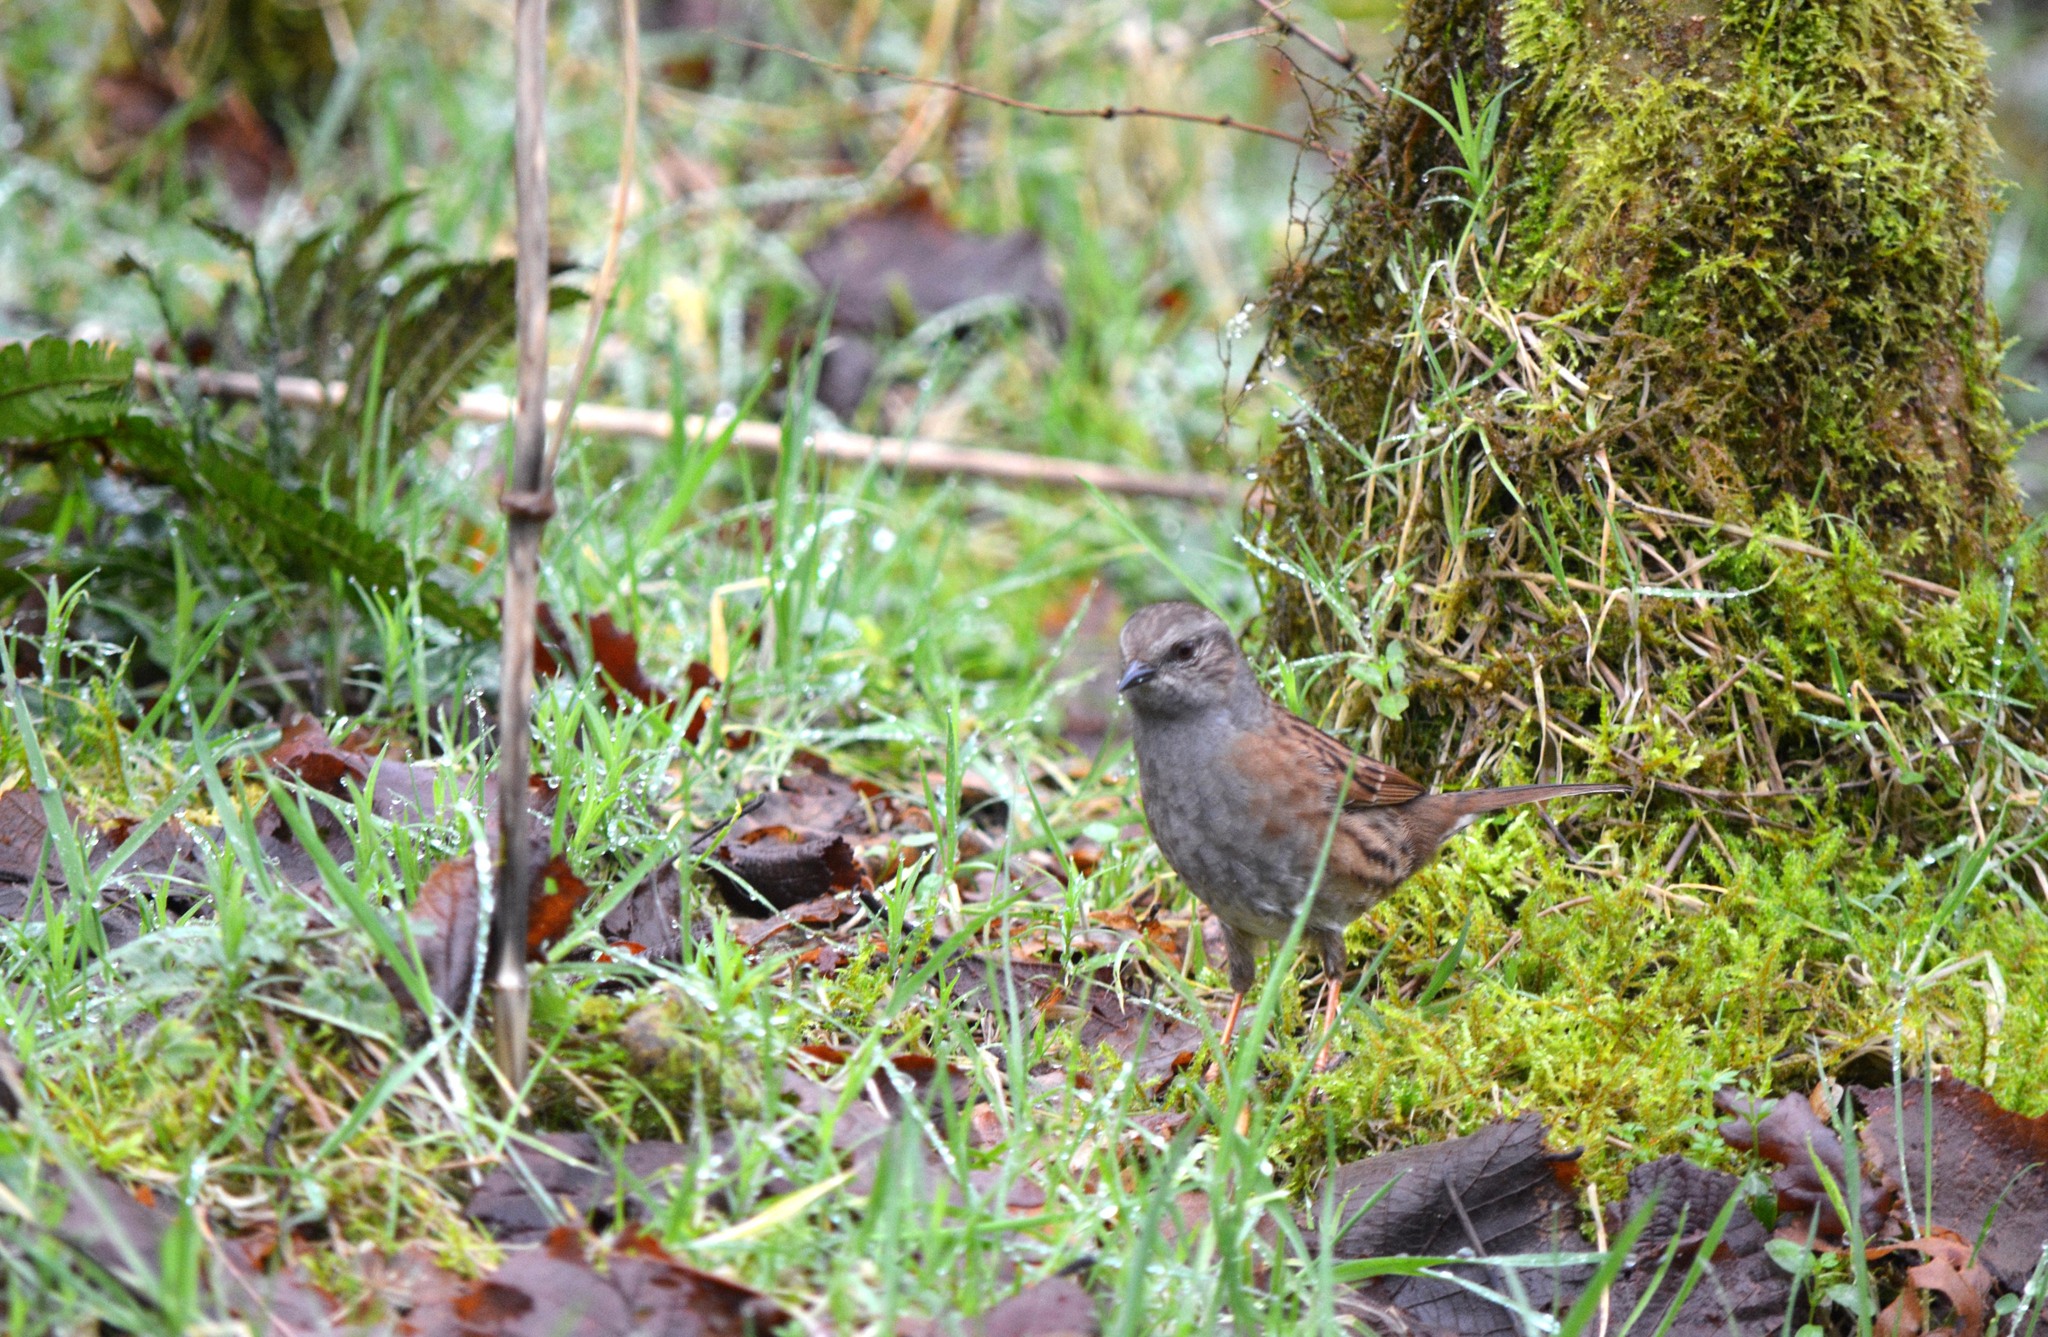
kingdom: Animalia
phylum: Chordata
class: Aves
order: Passeriformes
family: Prunellidae
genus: Prunella
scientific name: Prunella modularis
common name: Dunnock
